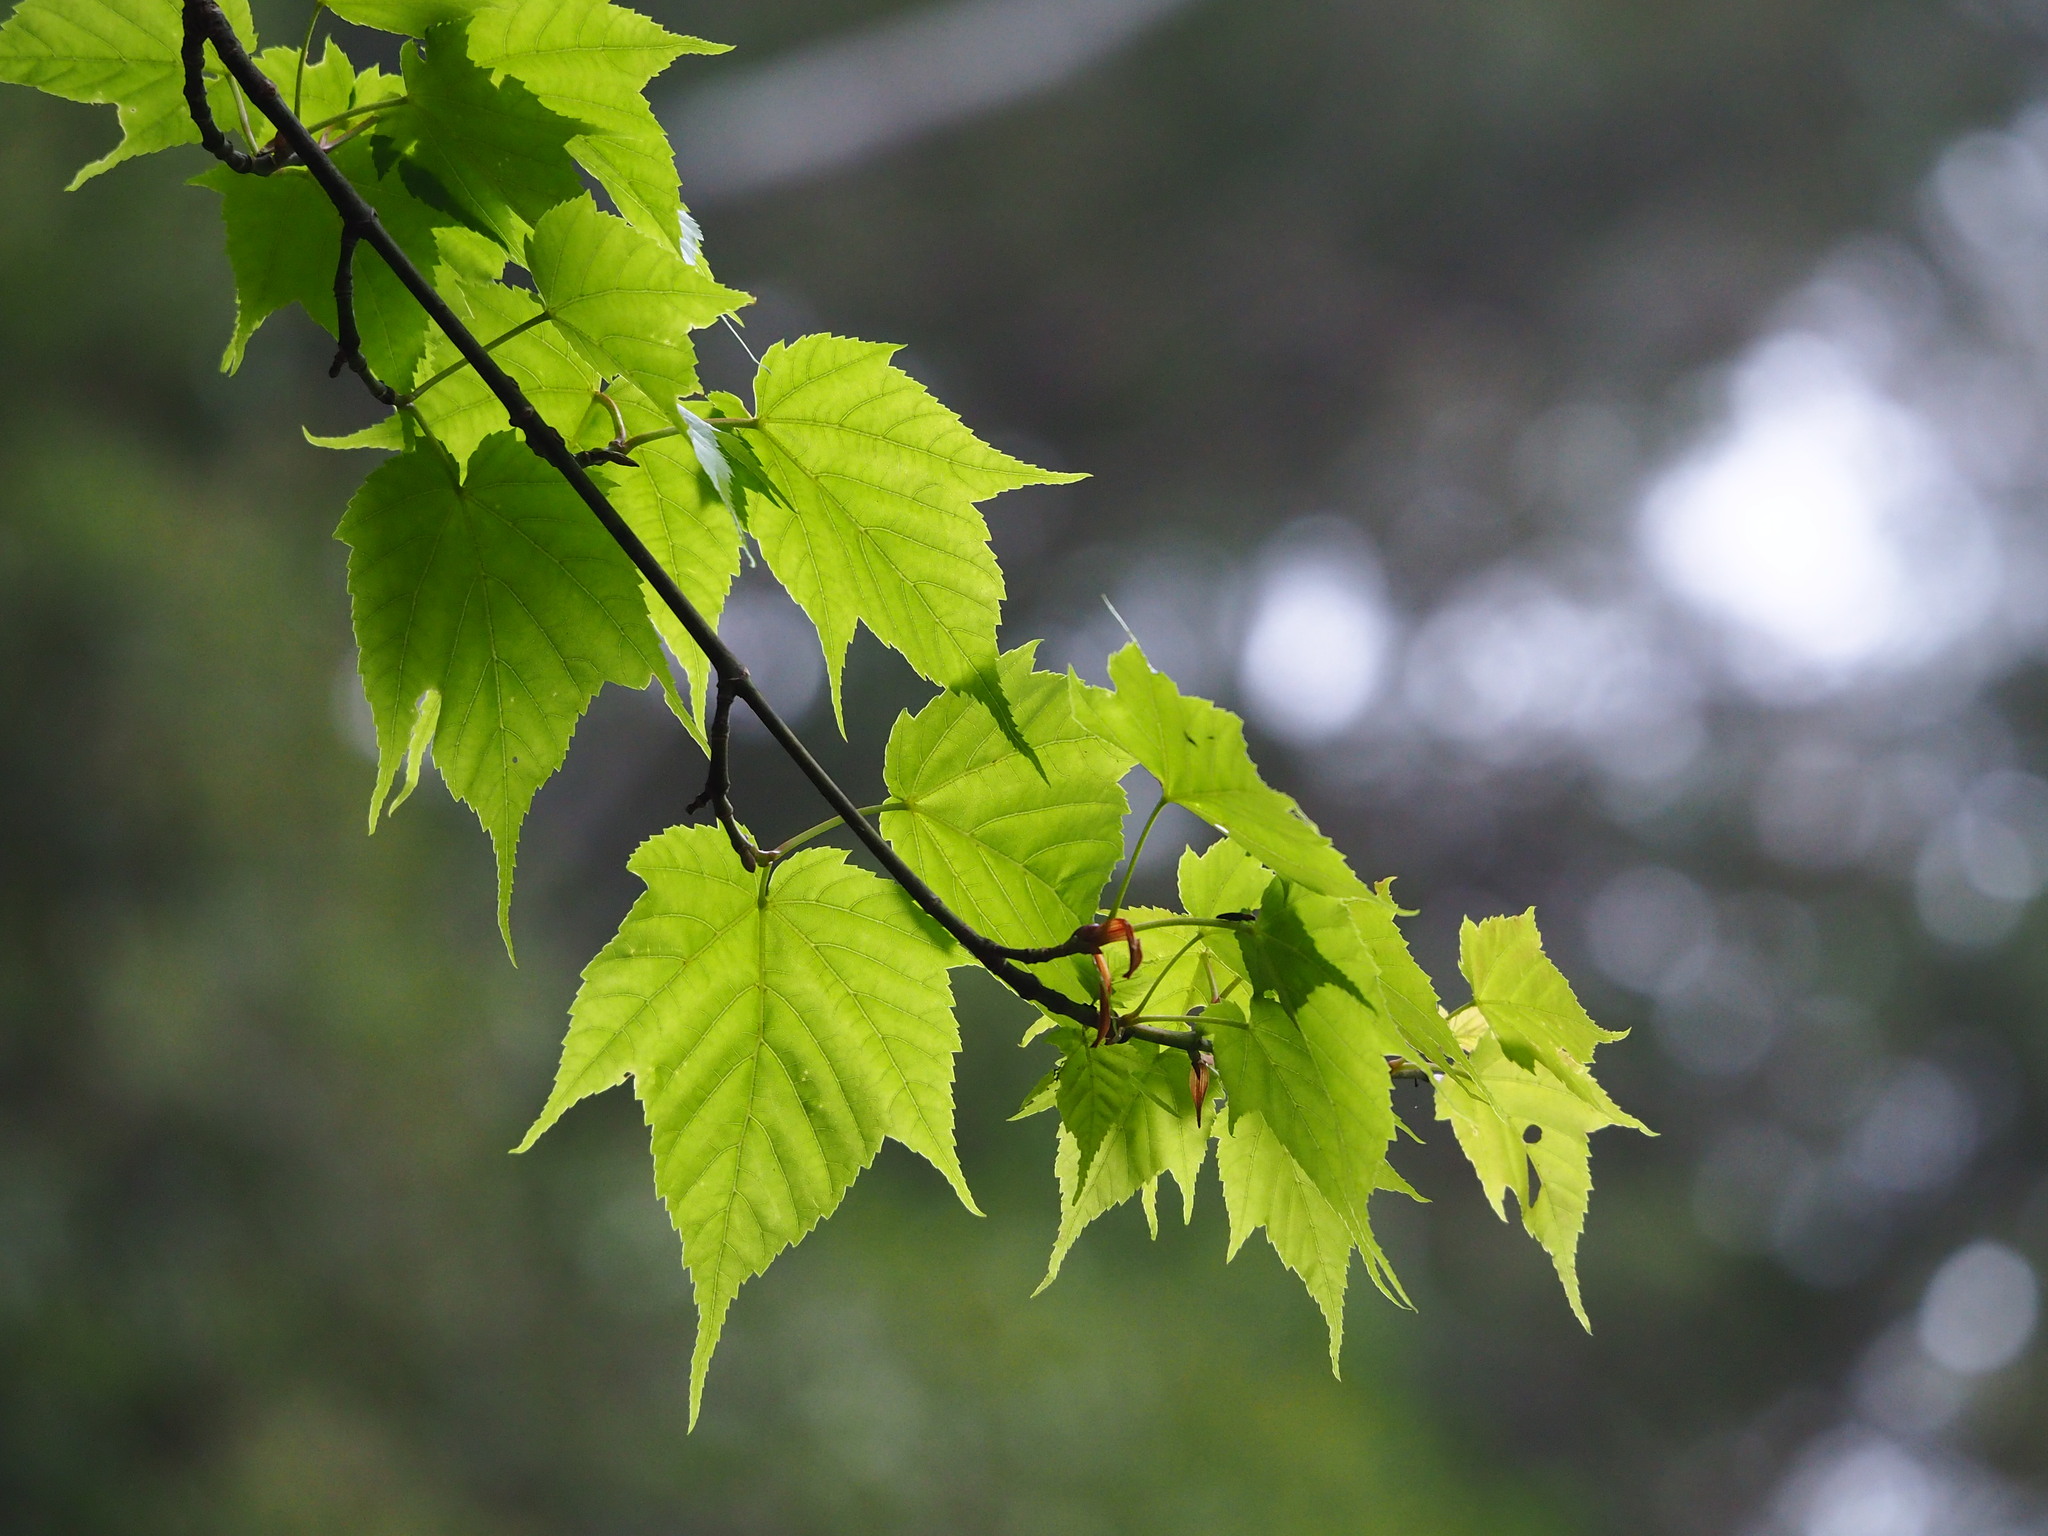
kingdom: Plantae
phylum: Tracheophyta
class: Magnoliopsida
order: Sapindales
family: Sapindaceae
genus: Acer
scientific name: Acer caudatifolium
